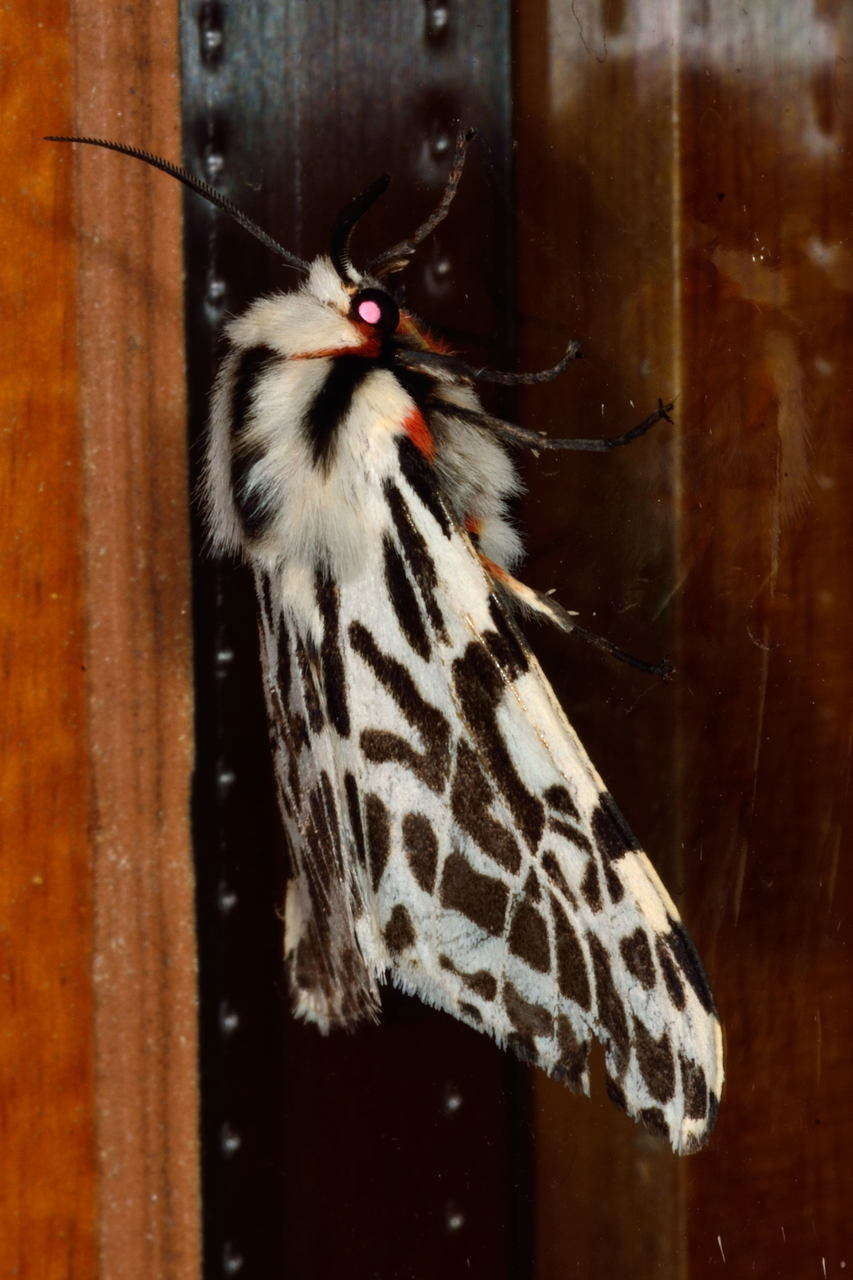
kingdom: Animalia
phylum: Arthropoda
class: Insecta
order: Lepidoptera
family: Erebidae
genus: Ardices
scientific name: Ardices glatignyi
